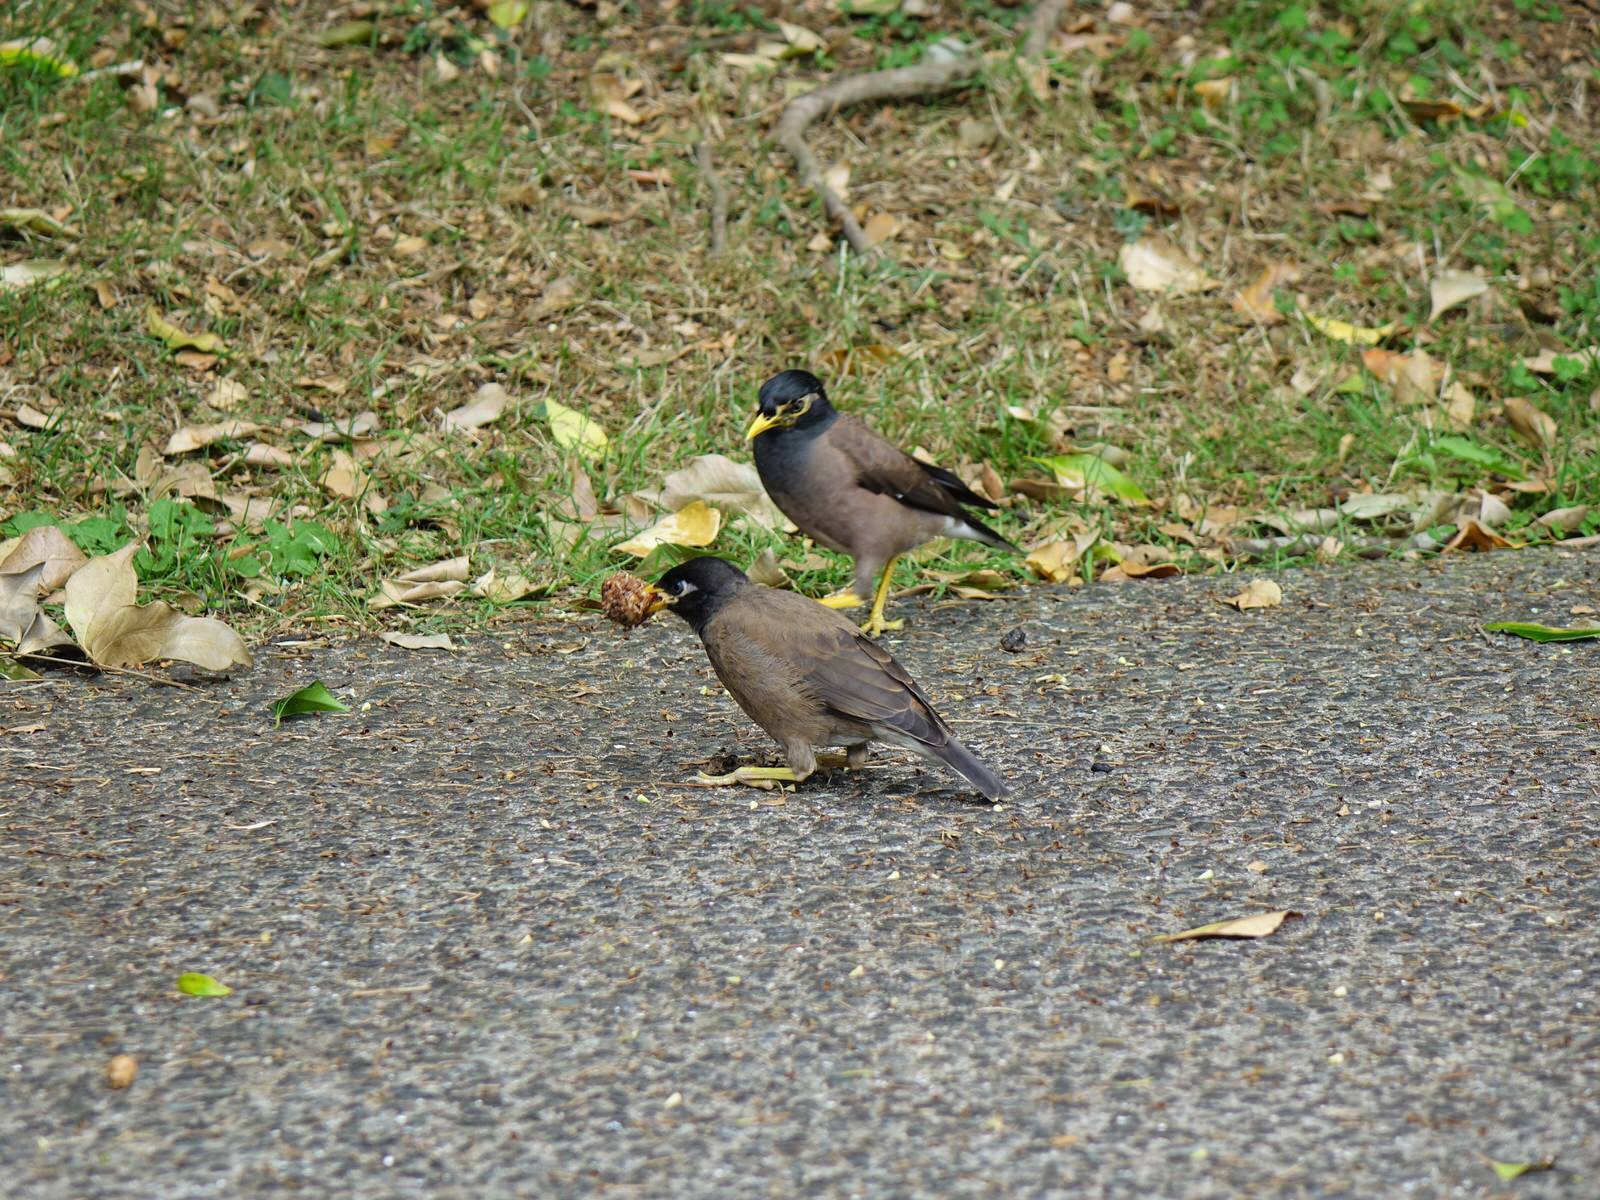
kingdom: Animalia
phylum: Chordata
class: Aves
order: Passeriformes
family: Sturnidae
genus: Acridotheres
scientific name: Acridotheres tristis
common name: Common myna
